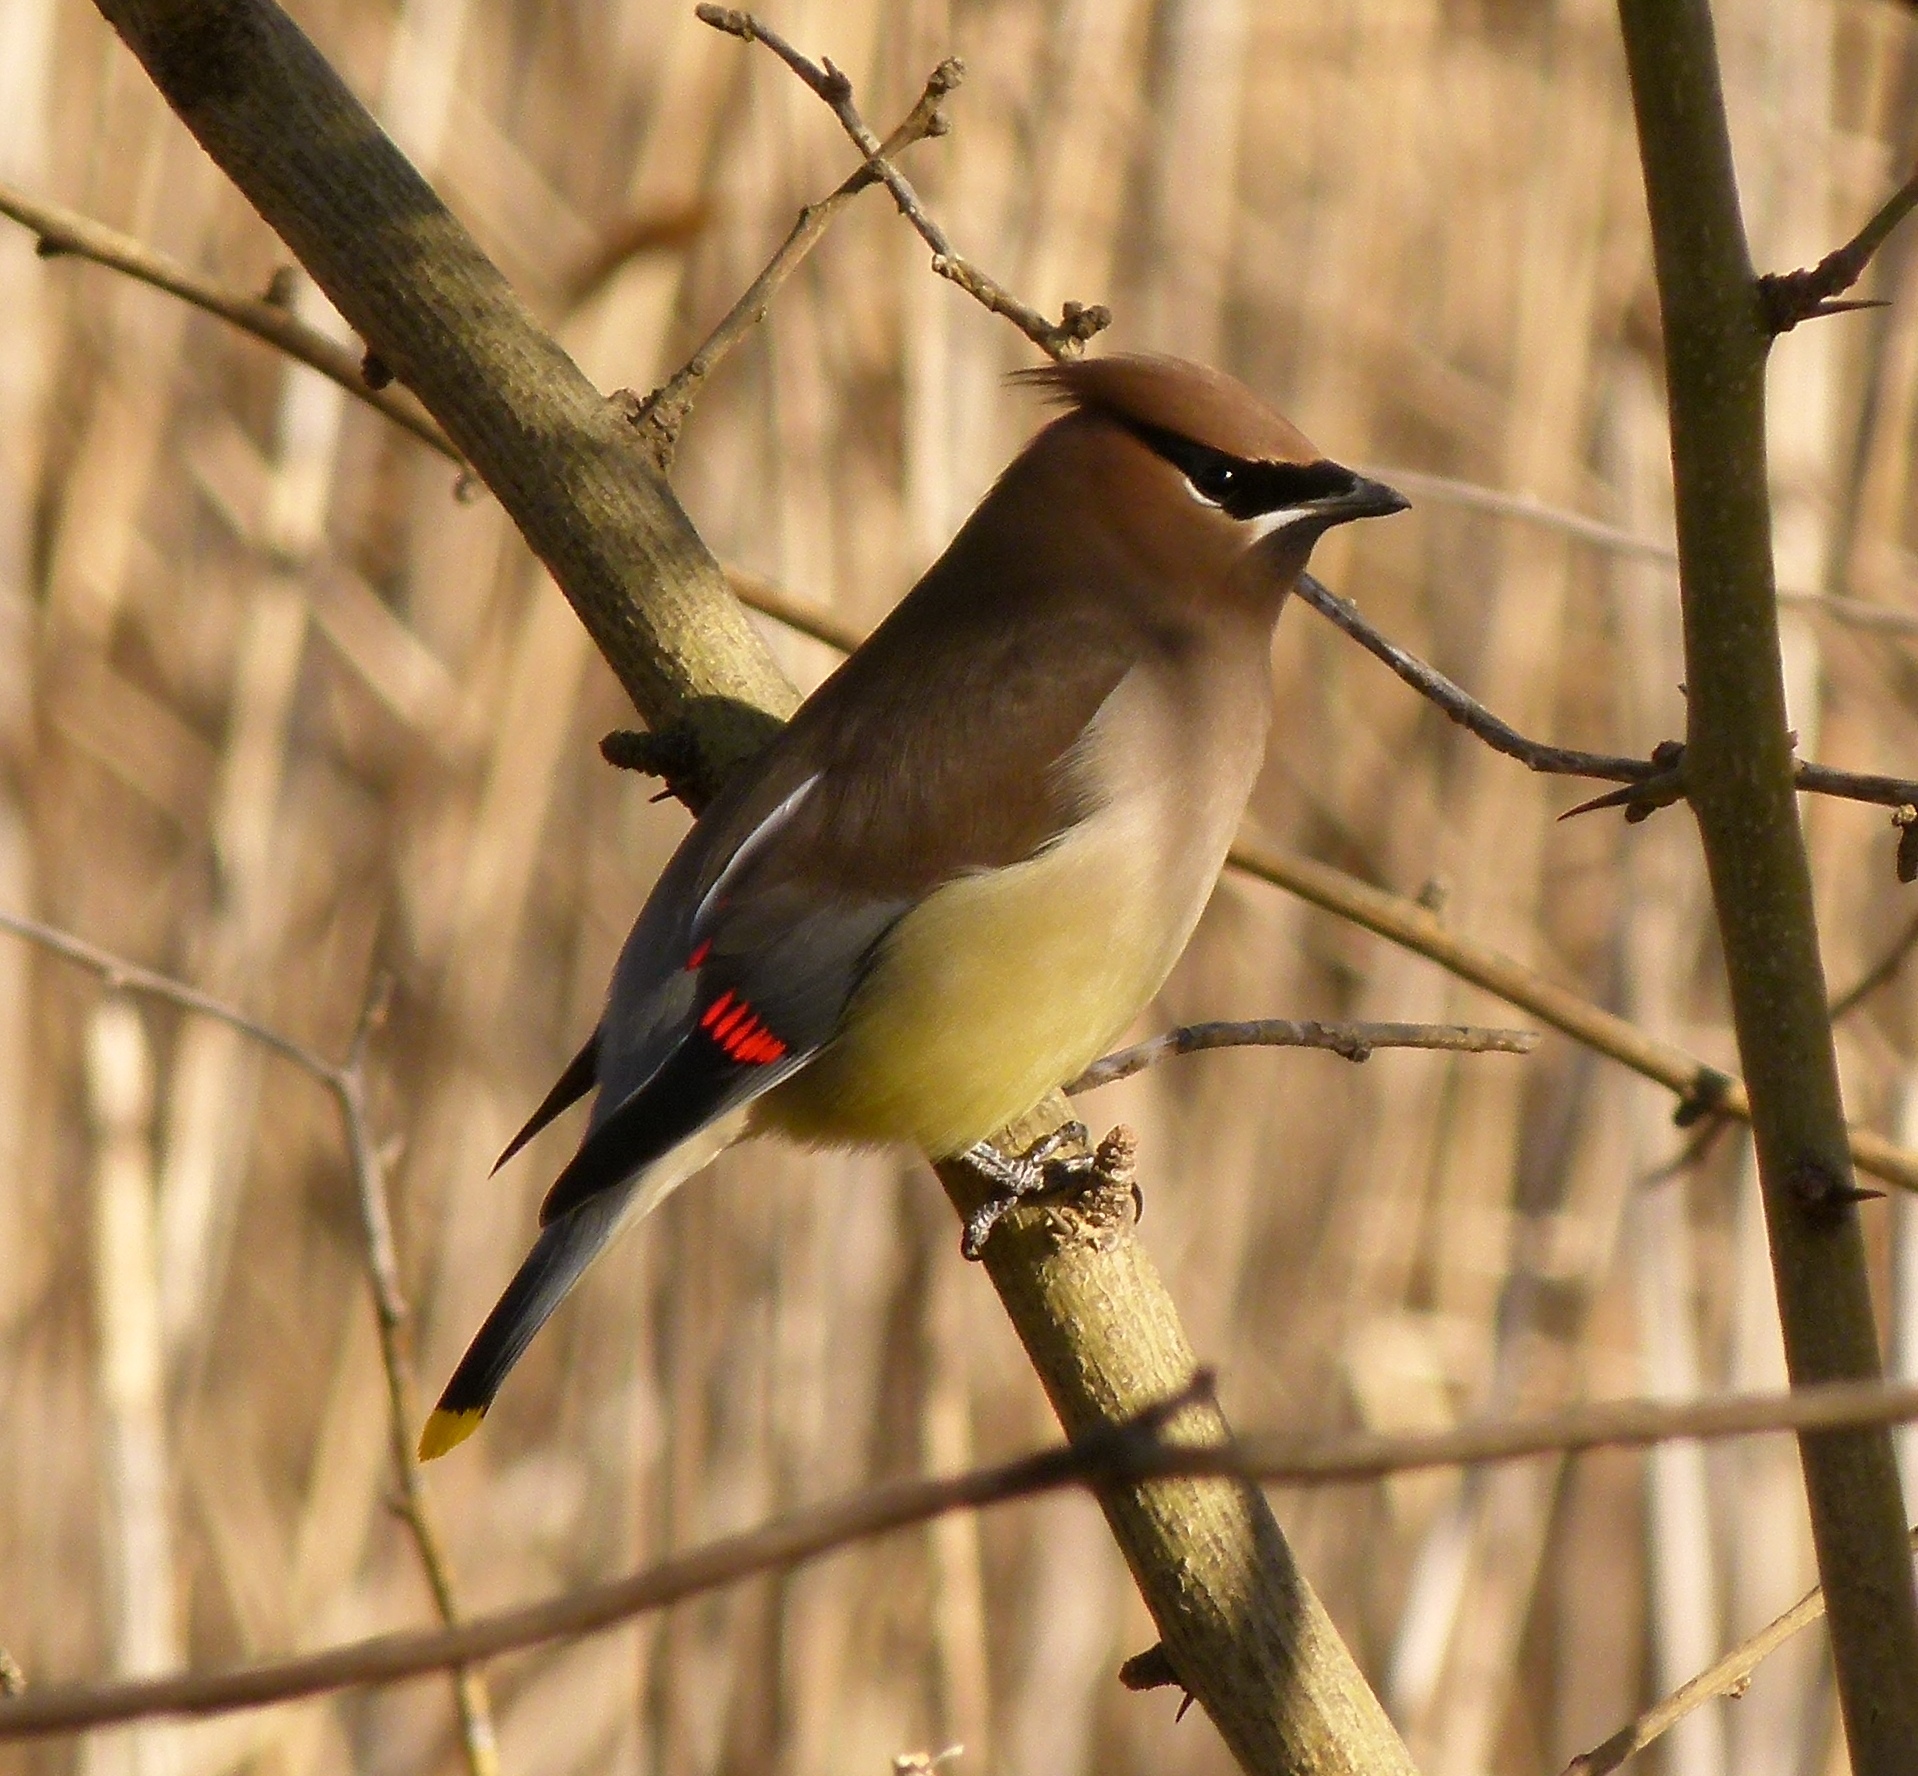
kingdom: Animalia
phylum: Chordata
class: Aves
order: Passeriformes
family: Bombycillidae
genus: Bombycilla
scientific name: Bombycilla cedrorum
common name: Cedar waxwing
